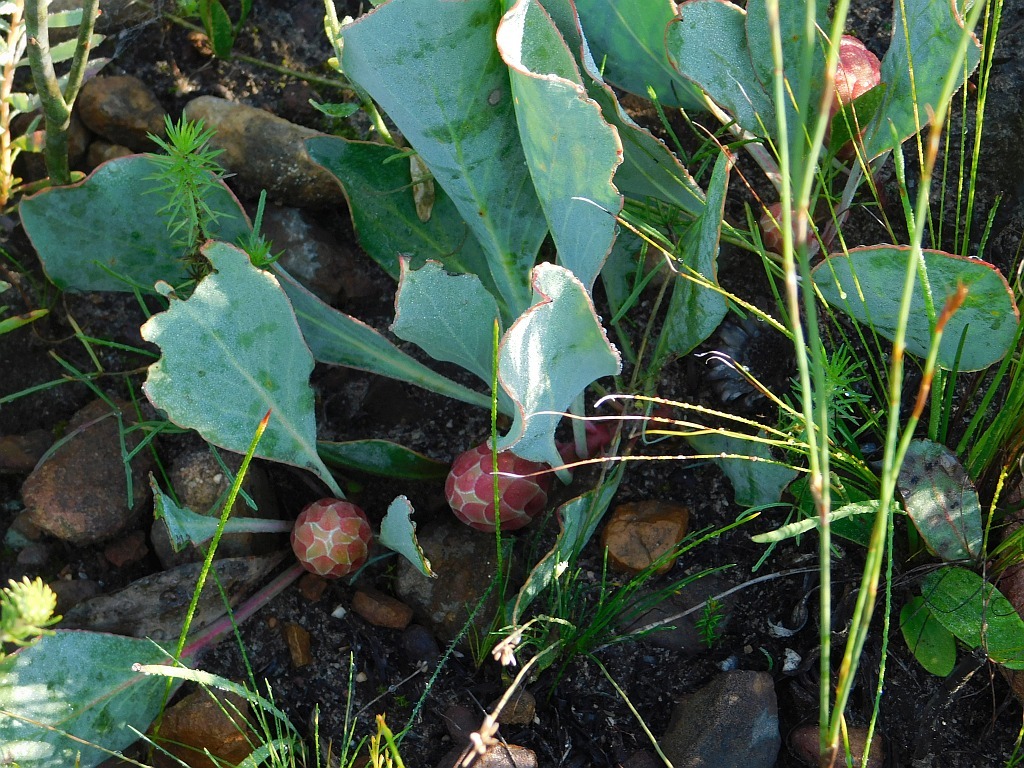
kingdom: Plantae
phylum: Tracheophyta
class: Magnoliopsida
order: Proteales
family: Proteaceae
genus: Protea
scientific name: Protea acaulos
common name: Common ground sugarbush
